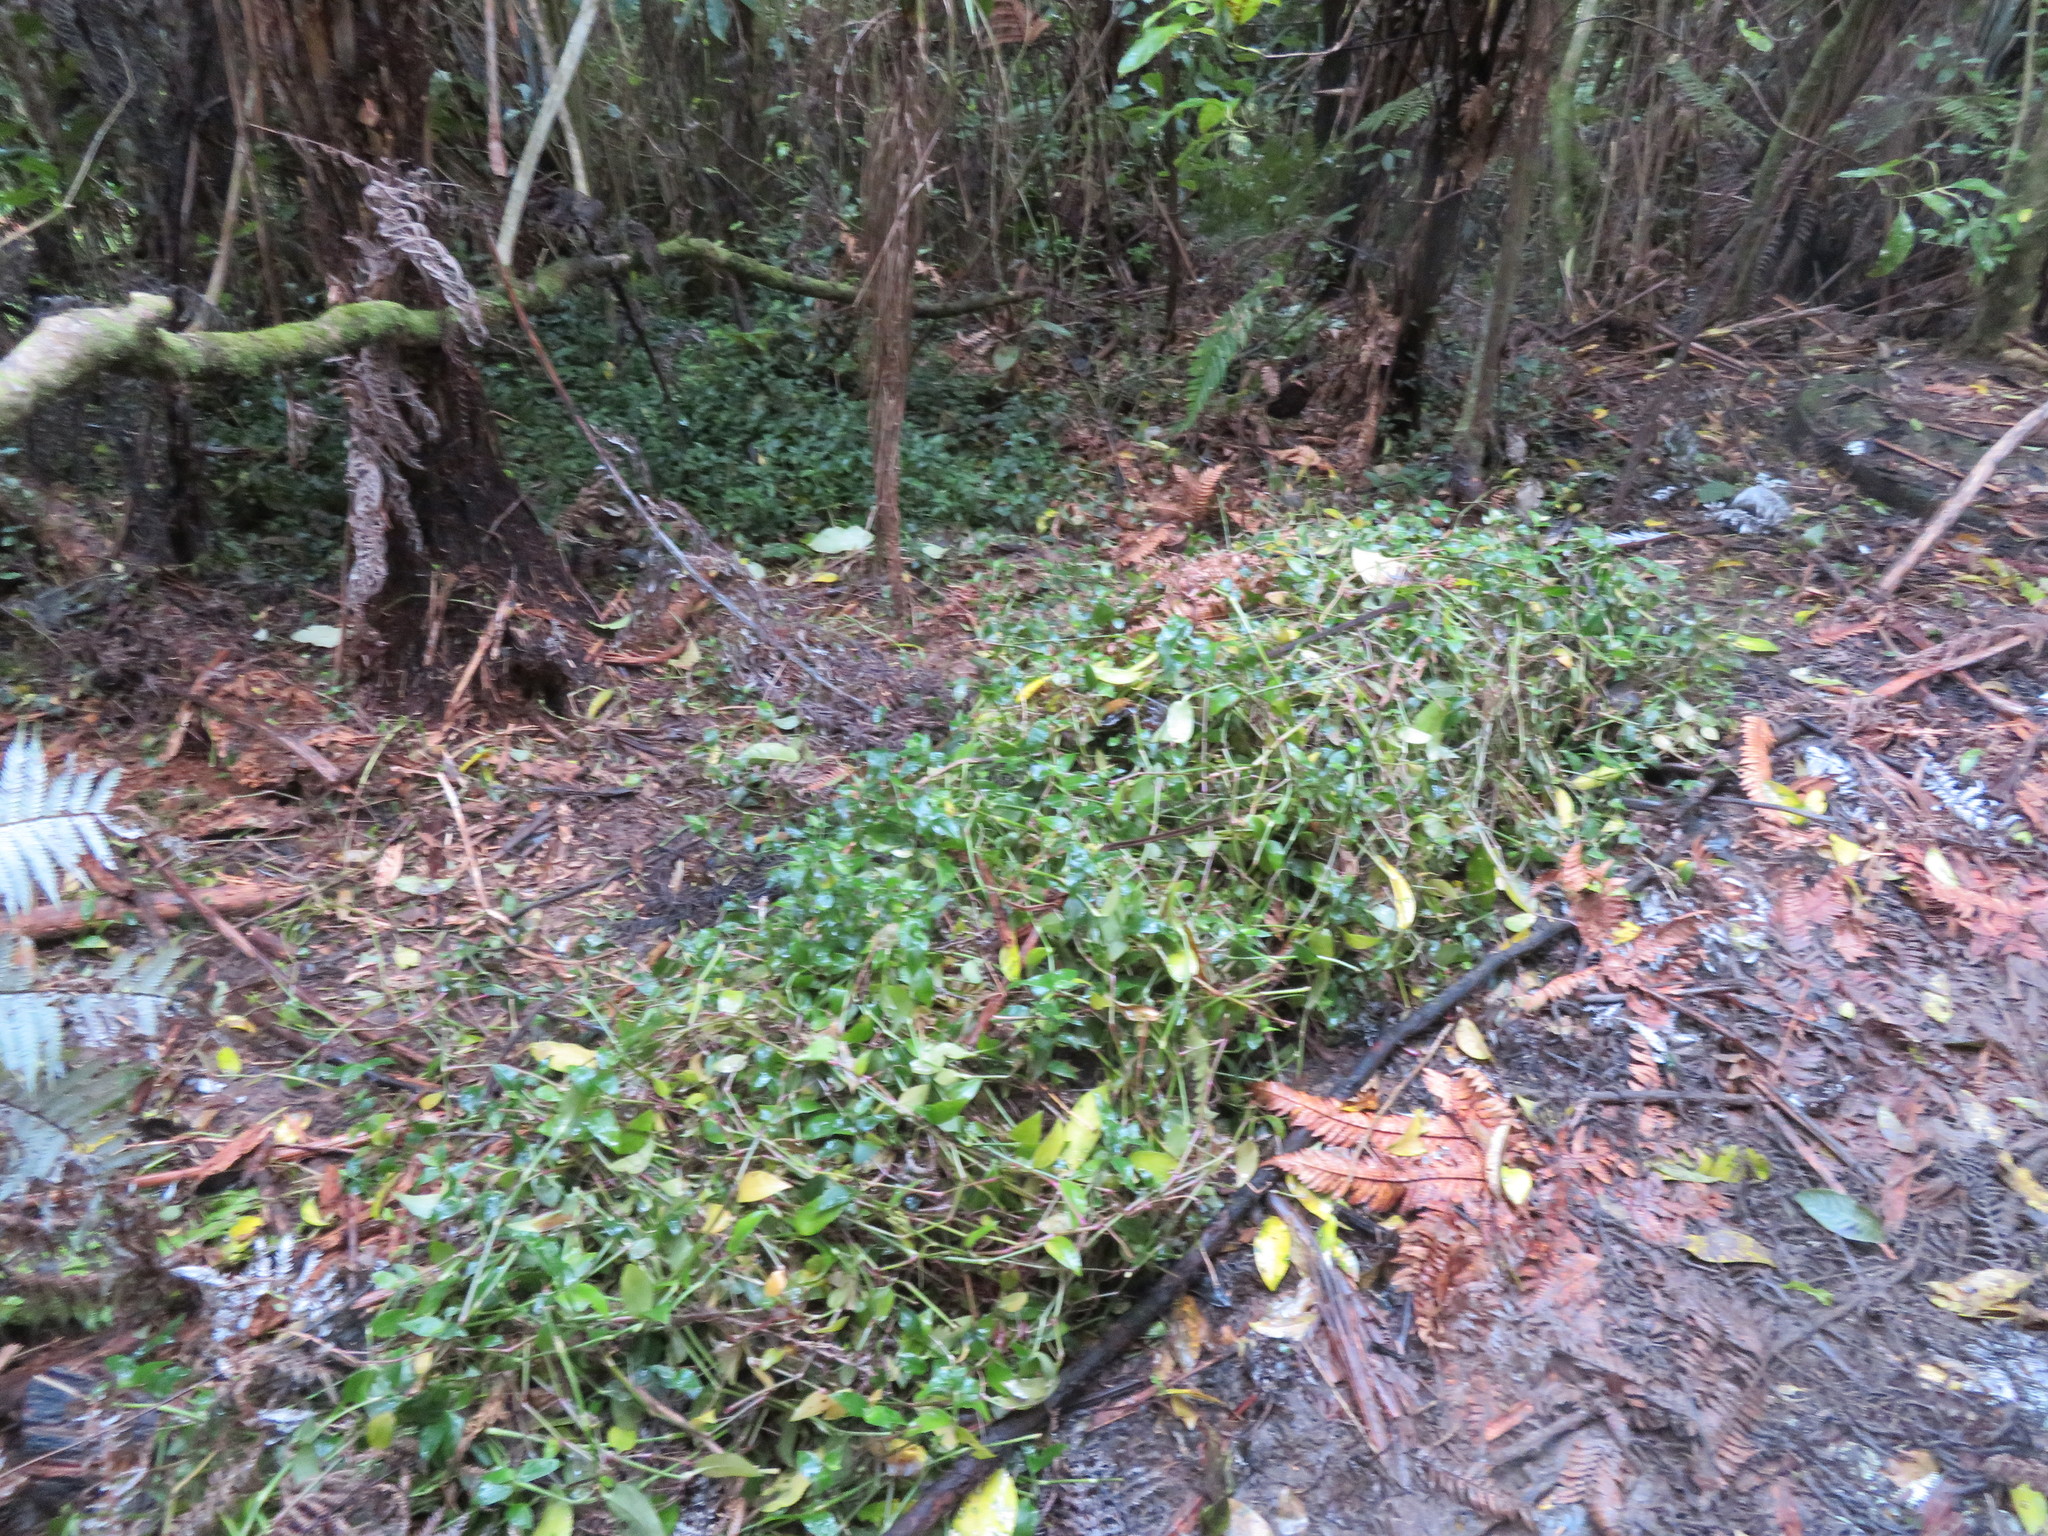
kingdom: Plantae
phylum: Tracheophyta
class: Liliopsida
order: Commelinales
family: Commelinaceae
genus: Tradescantia
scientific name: Tradescantia fluminensis
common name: Wandering-jew
